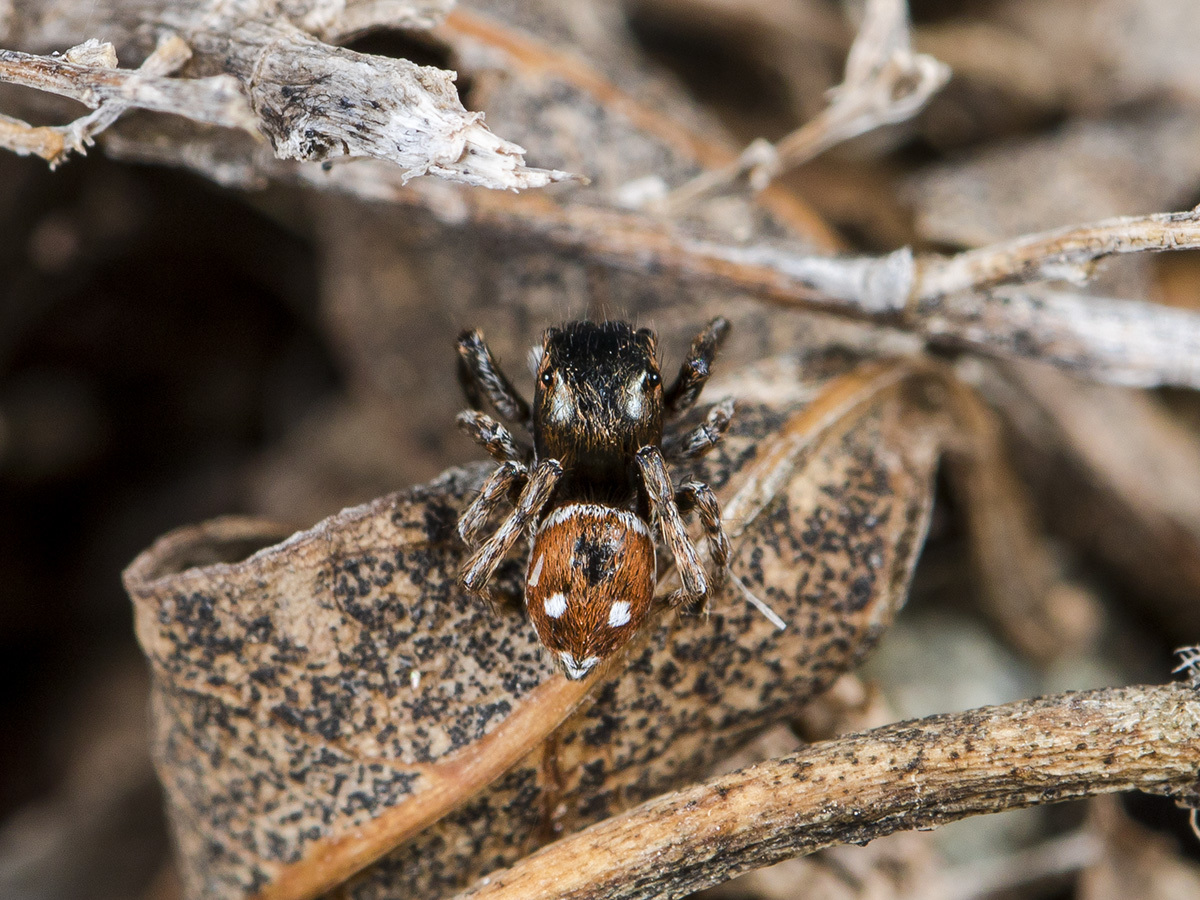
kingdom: Animalia
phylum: Arthropoda
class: Arachnida
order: Araneae
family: Salticidae
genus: Attulus
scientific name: Attulus mirandus
